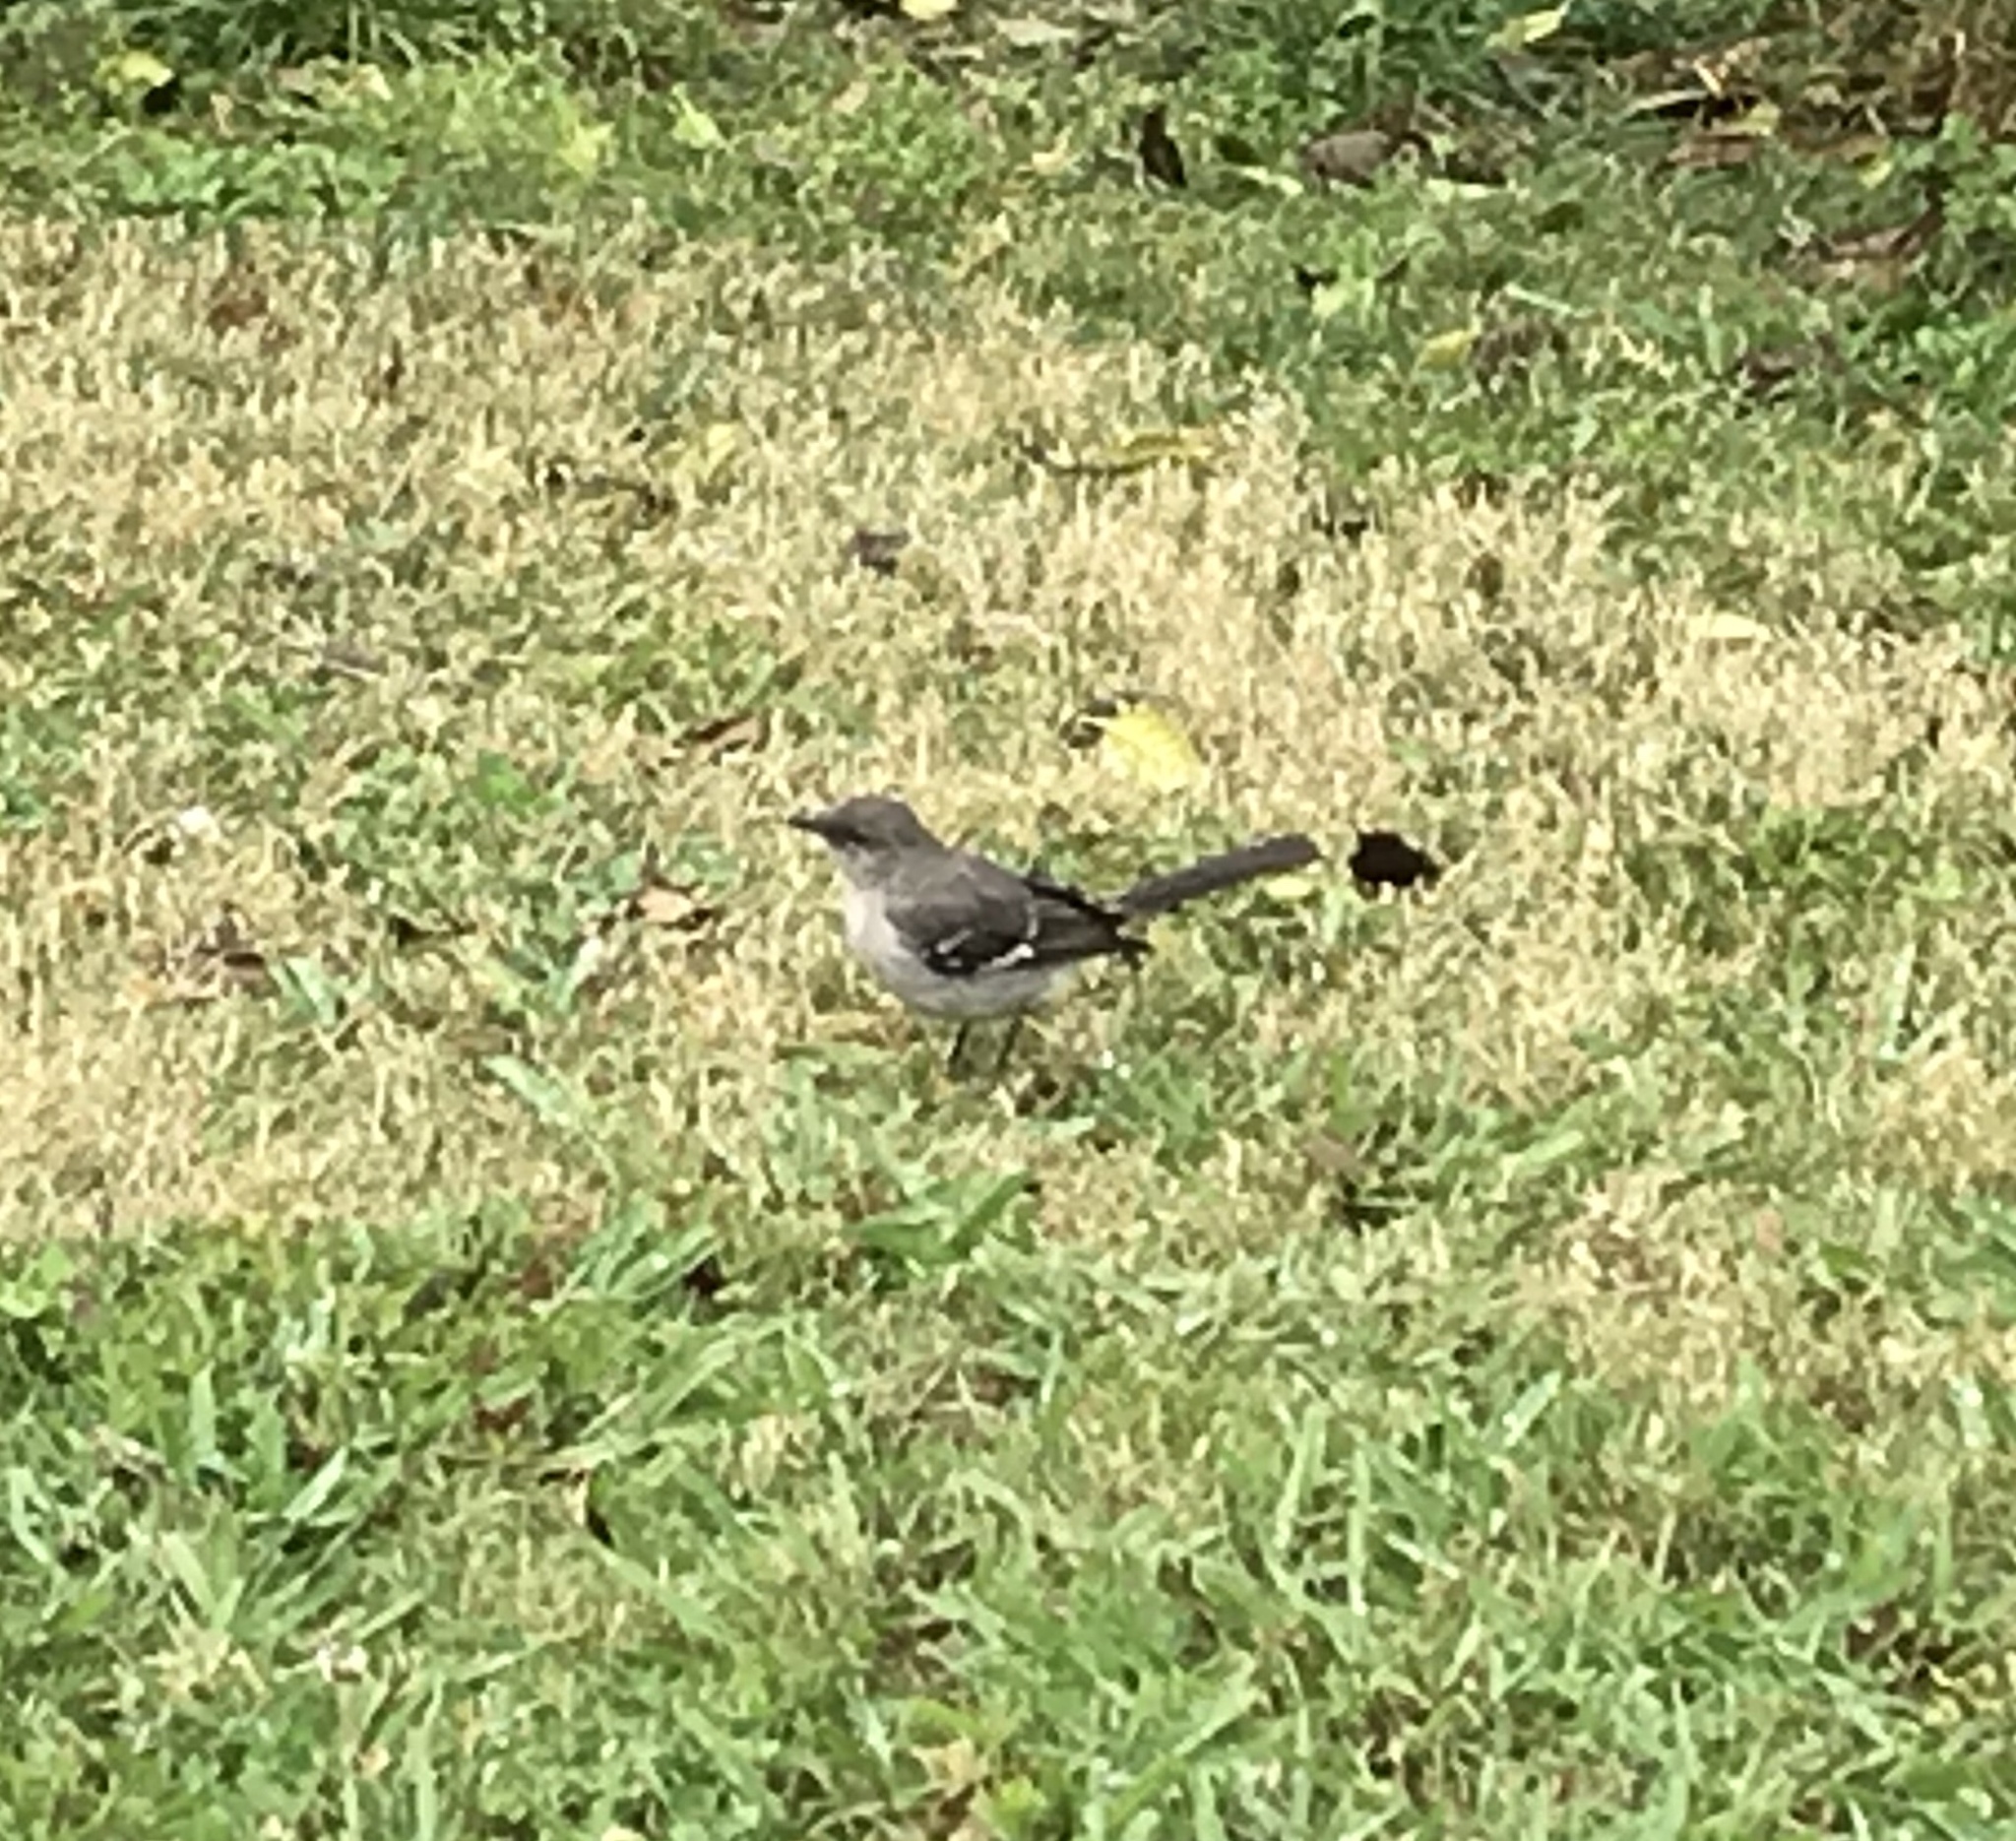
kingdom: Animalia
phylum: Chordata
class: Aves
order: Passeriformes
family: Mimidae
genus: Mimus
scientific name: Mimus polyglottos
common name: Northern mockingbird
